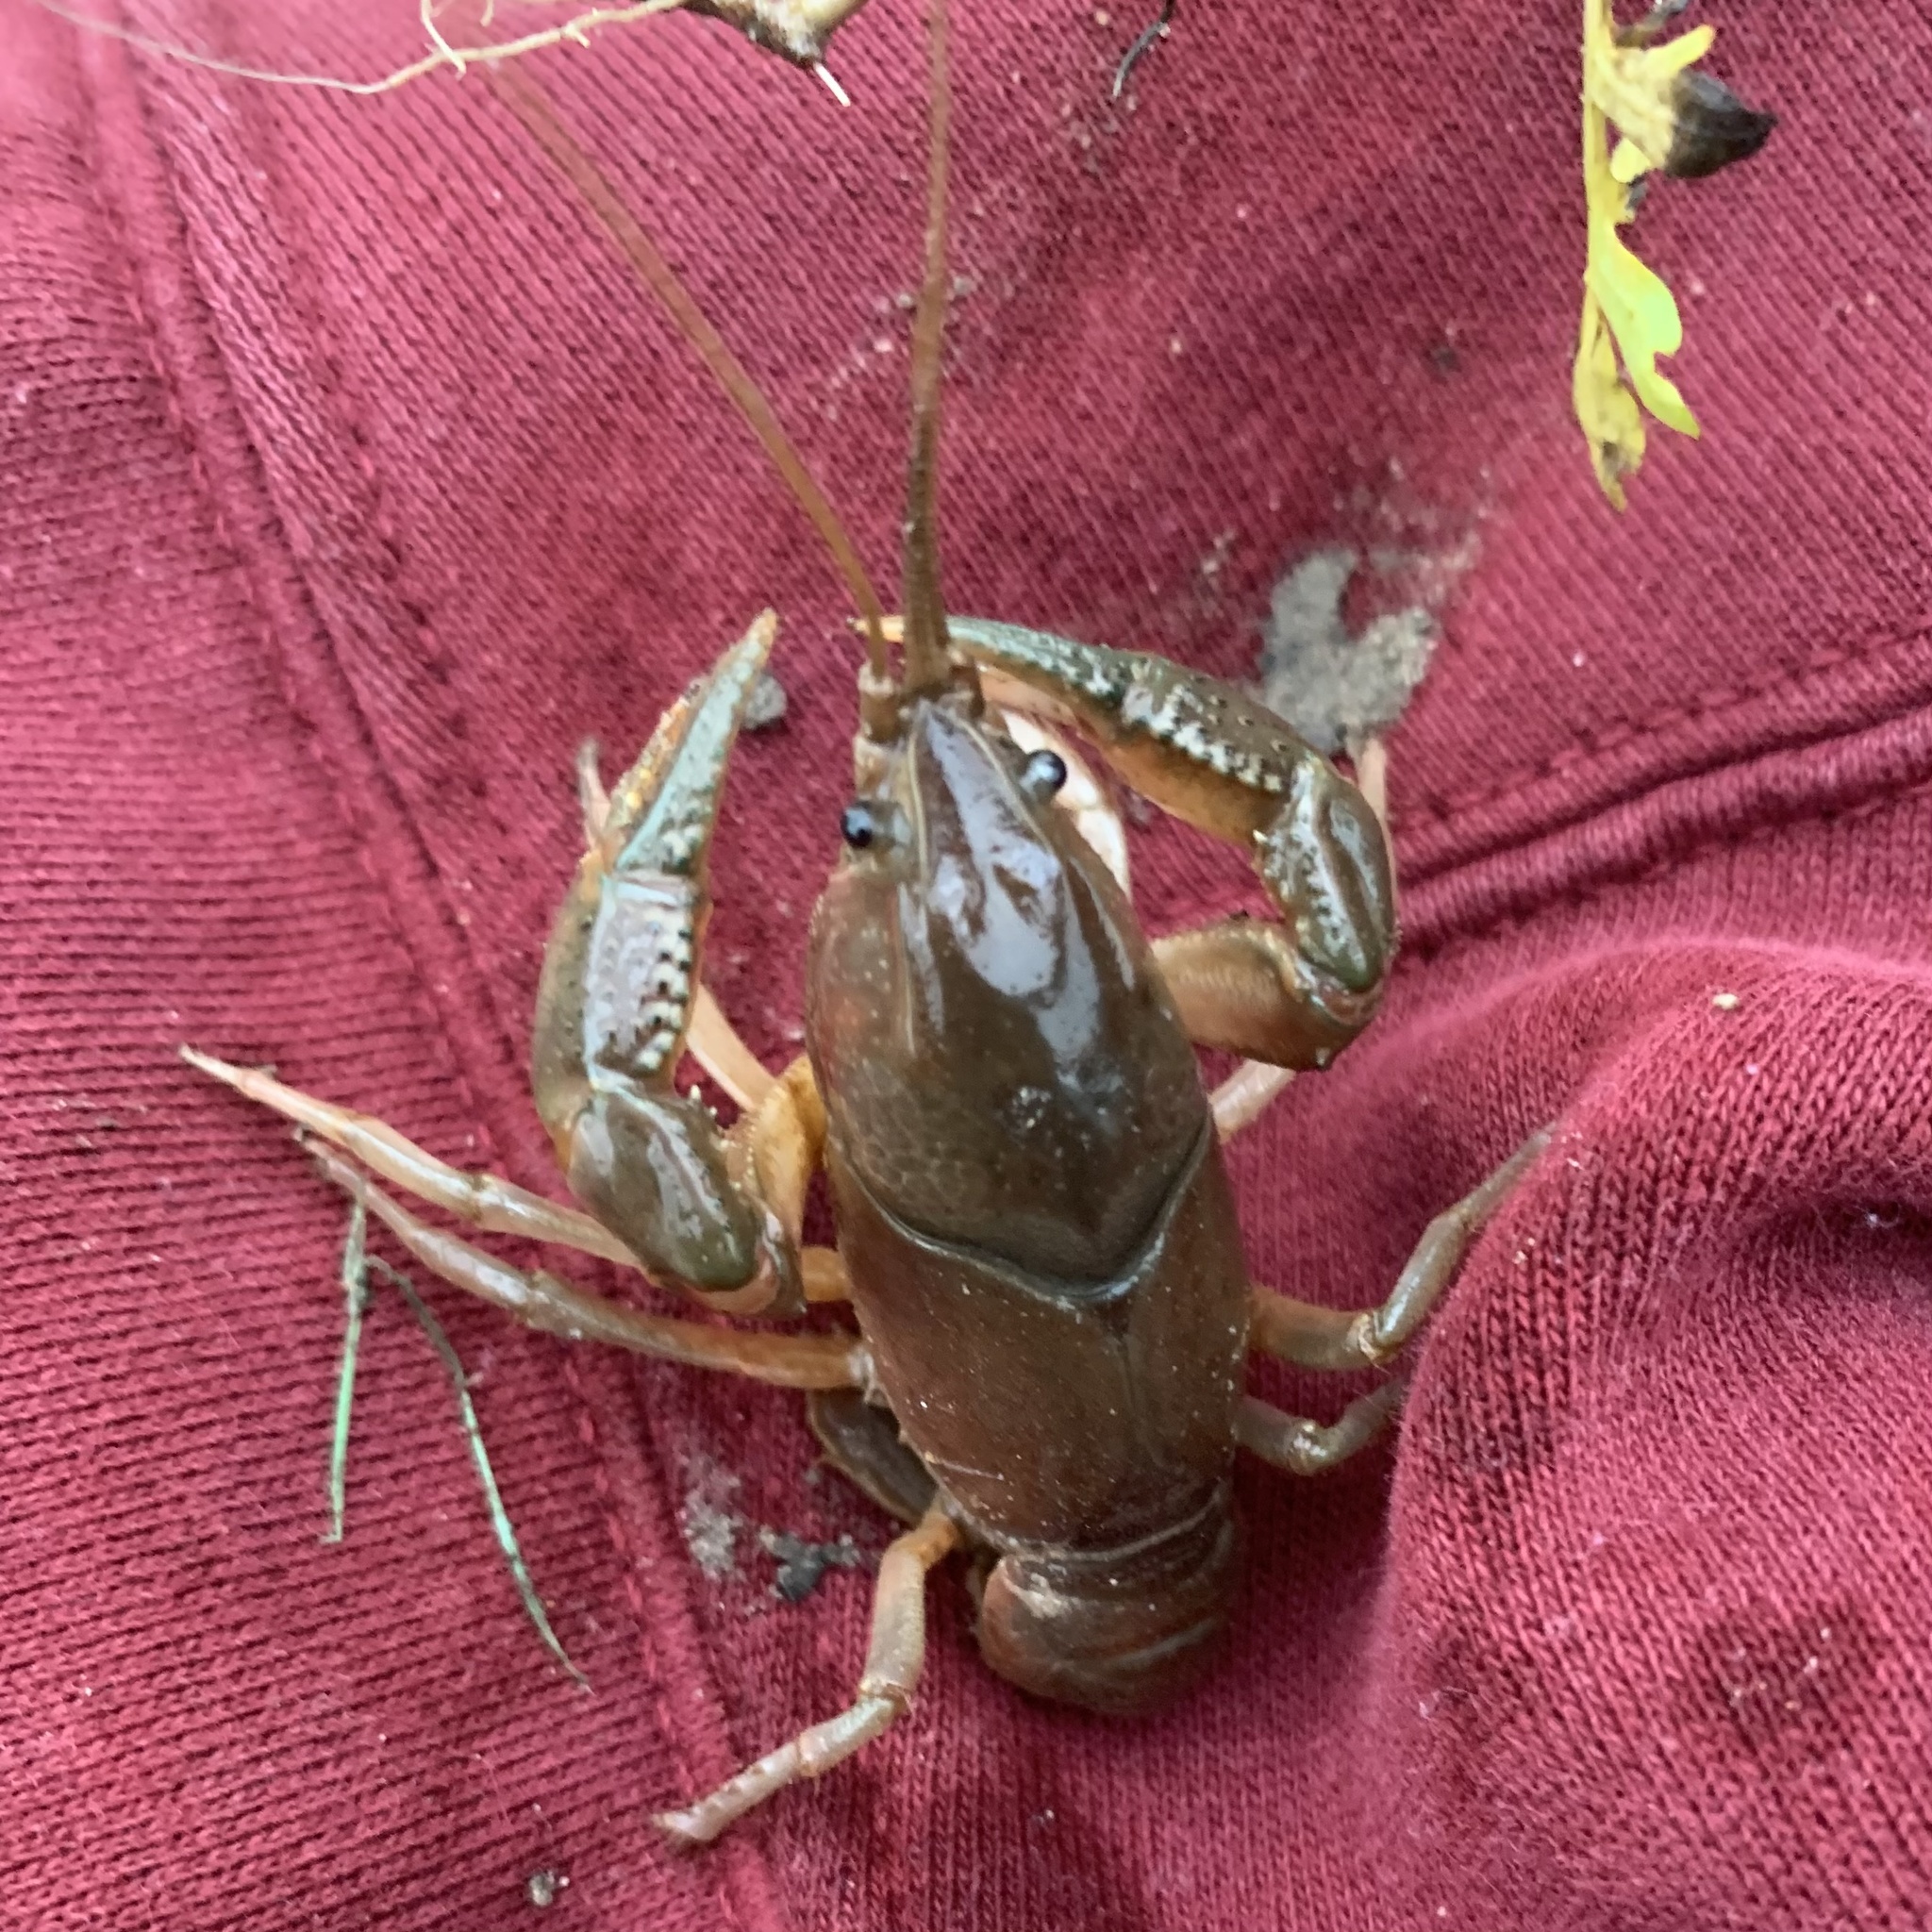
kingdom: Animalia
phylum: Arthropoda
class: Malacostraca
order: Decapoda
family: Cambaridae
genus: Fallicambarus
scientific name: Fallicambarus houstonensis
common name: Houston burrowing crayfish
